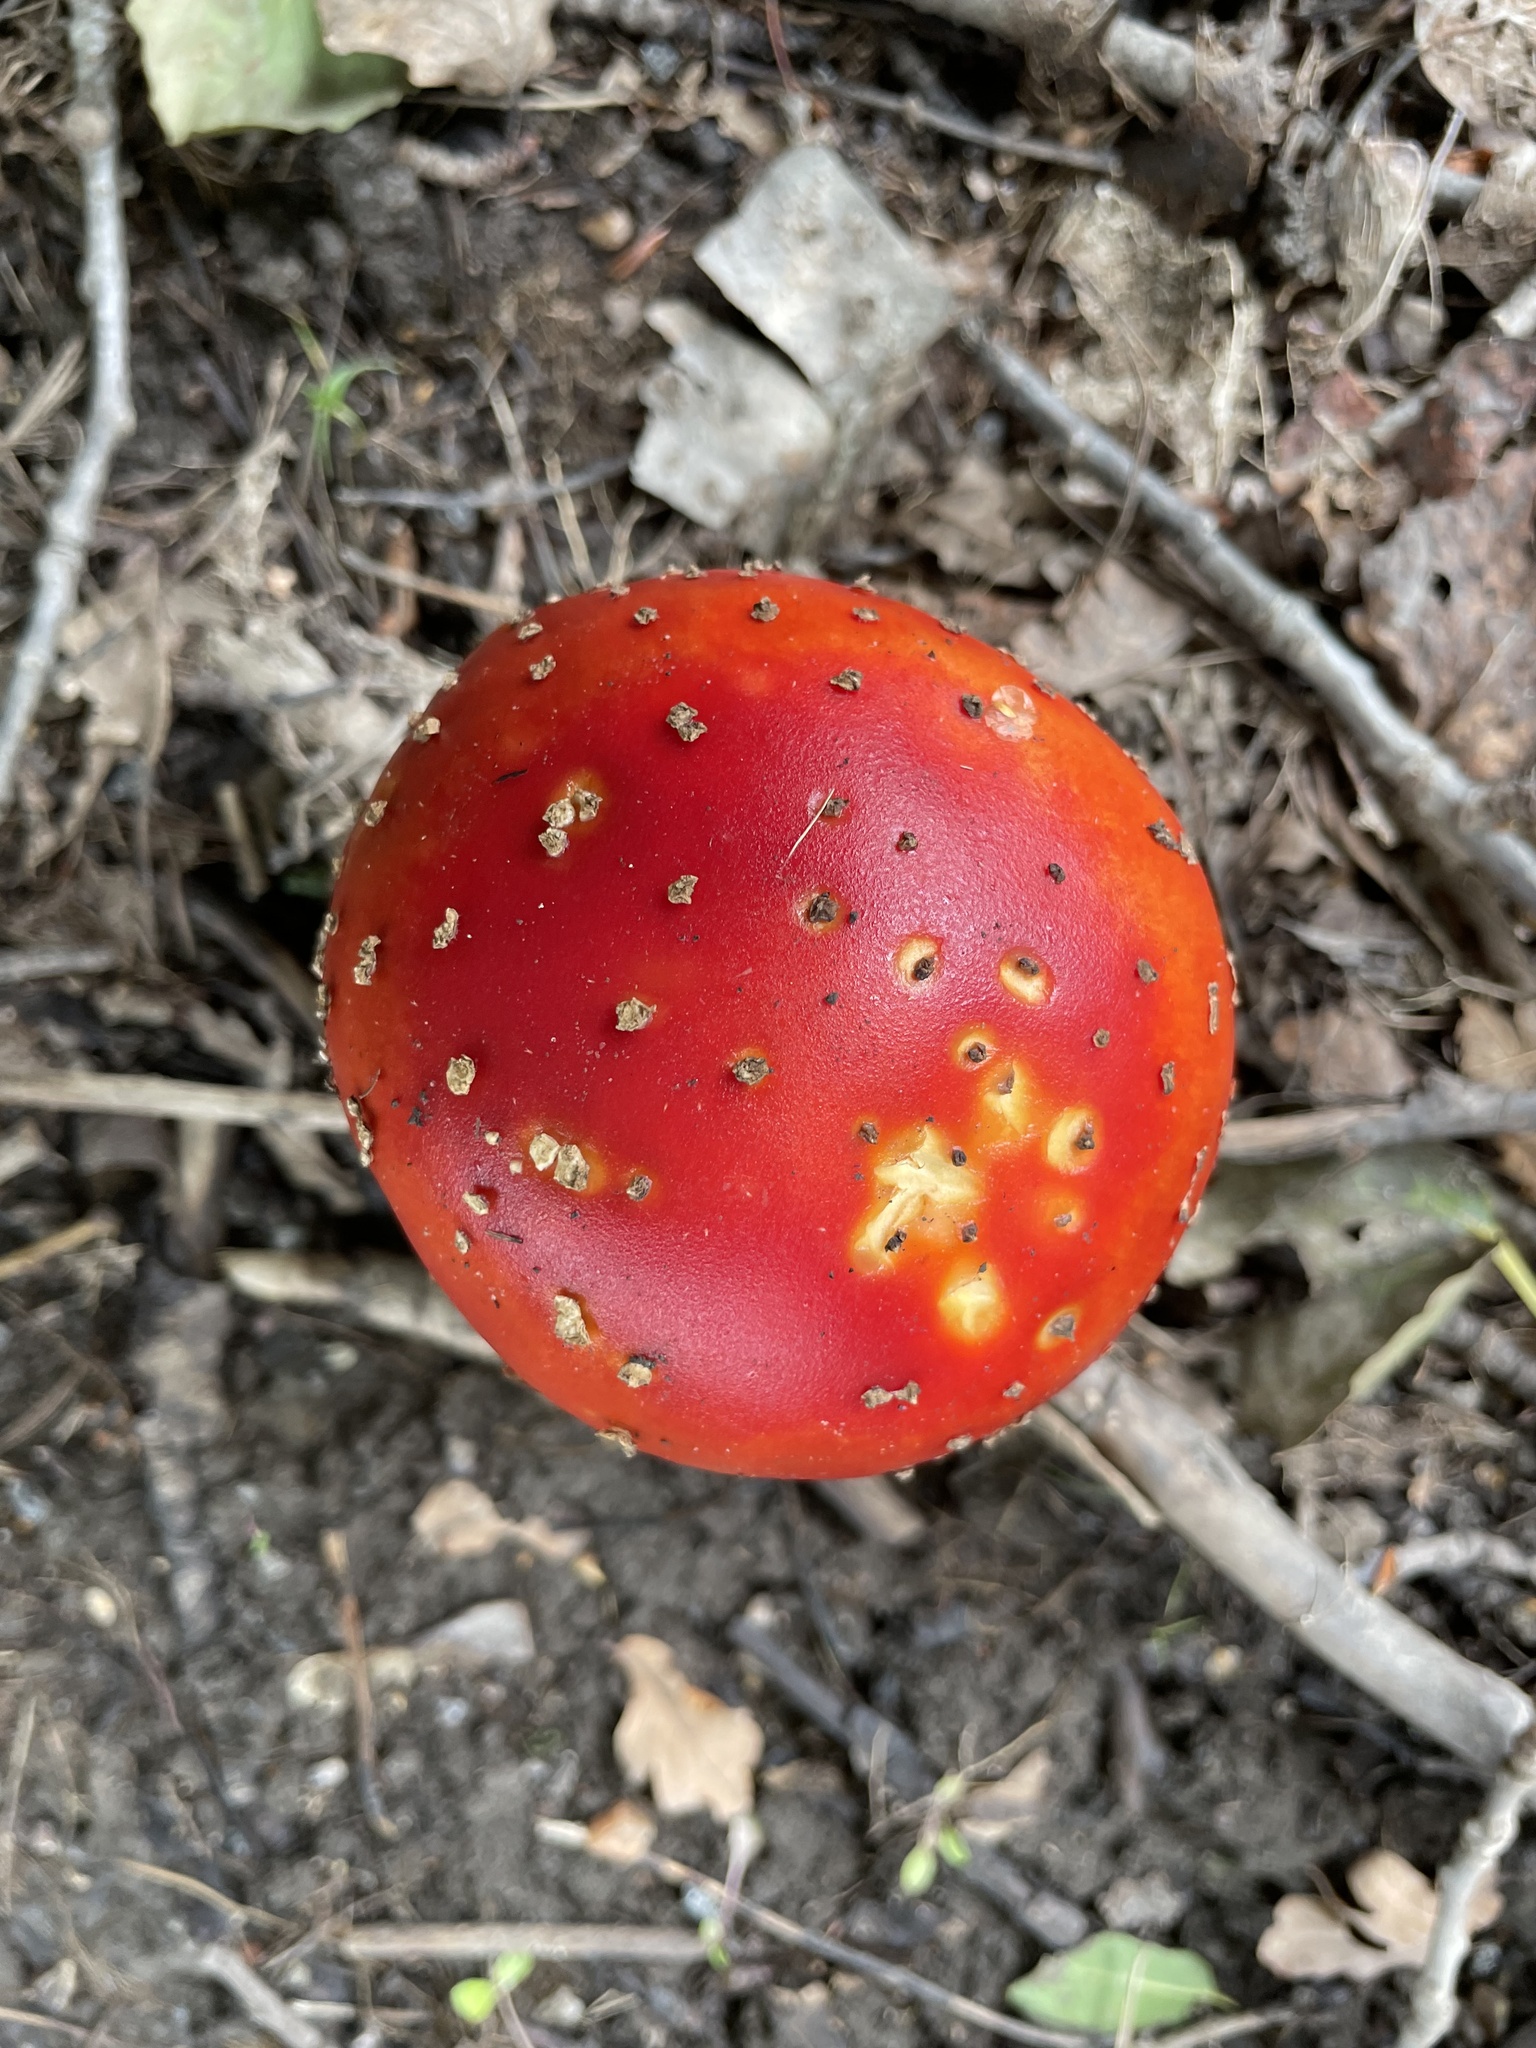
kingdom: Fungi
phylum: Basidiomycota
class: Agaricomycetes
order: Agaricales
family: Amanitaceae
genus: Amanita
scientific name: Amanita muscaria
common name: Fly agaric
